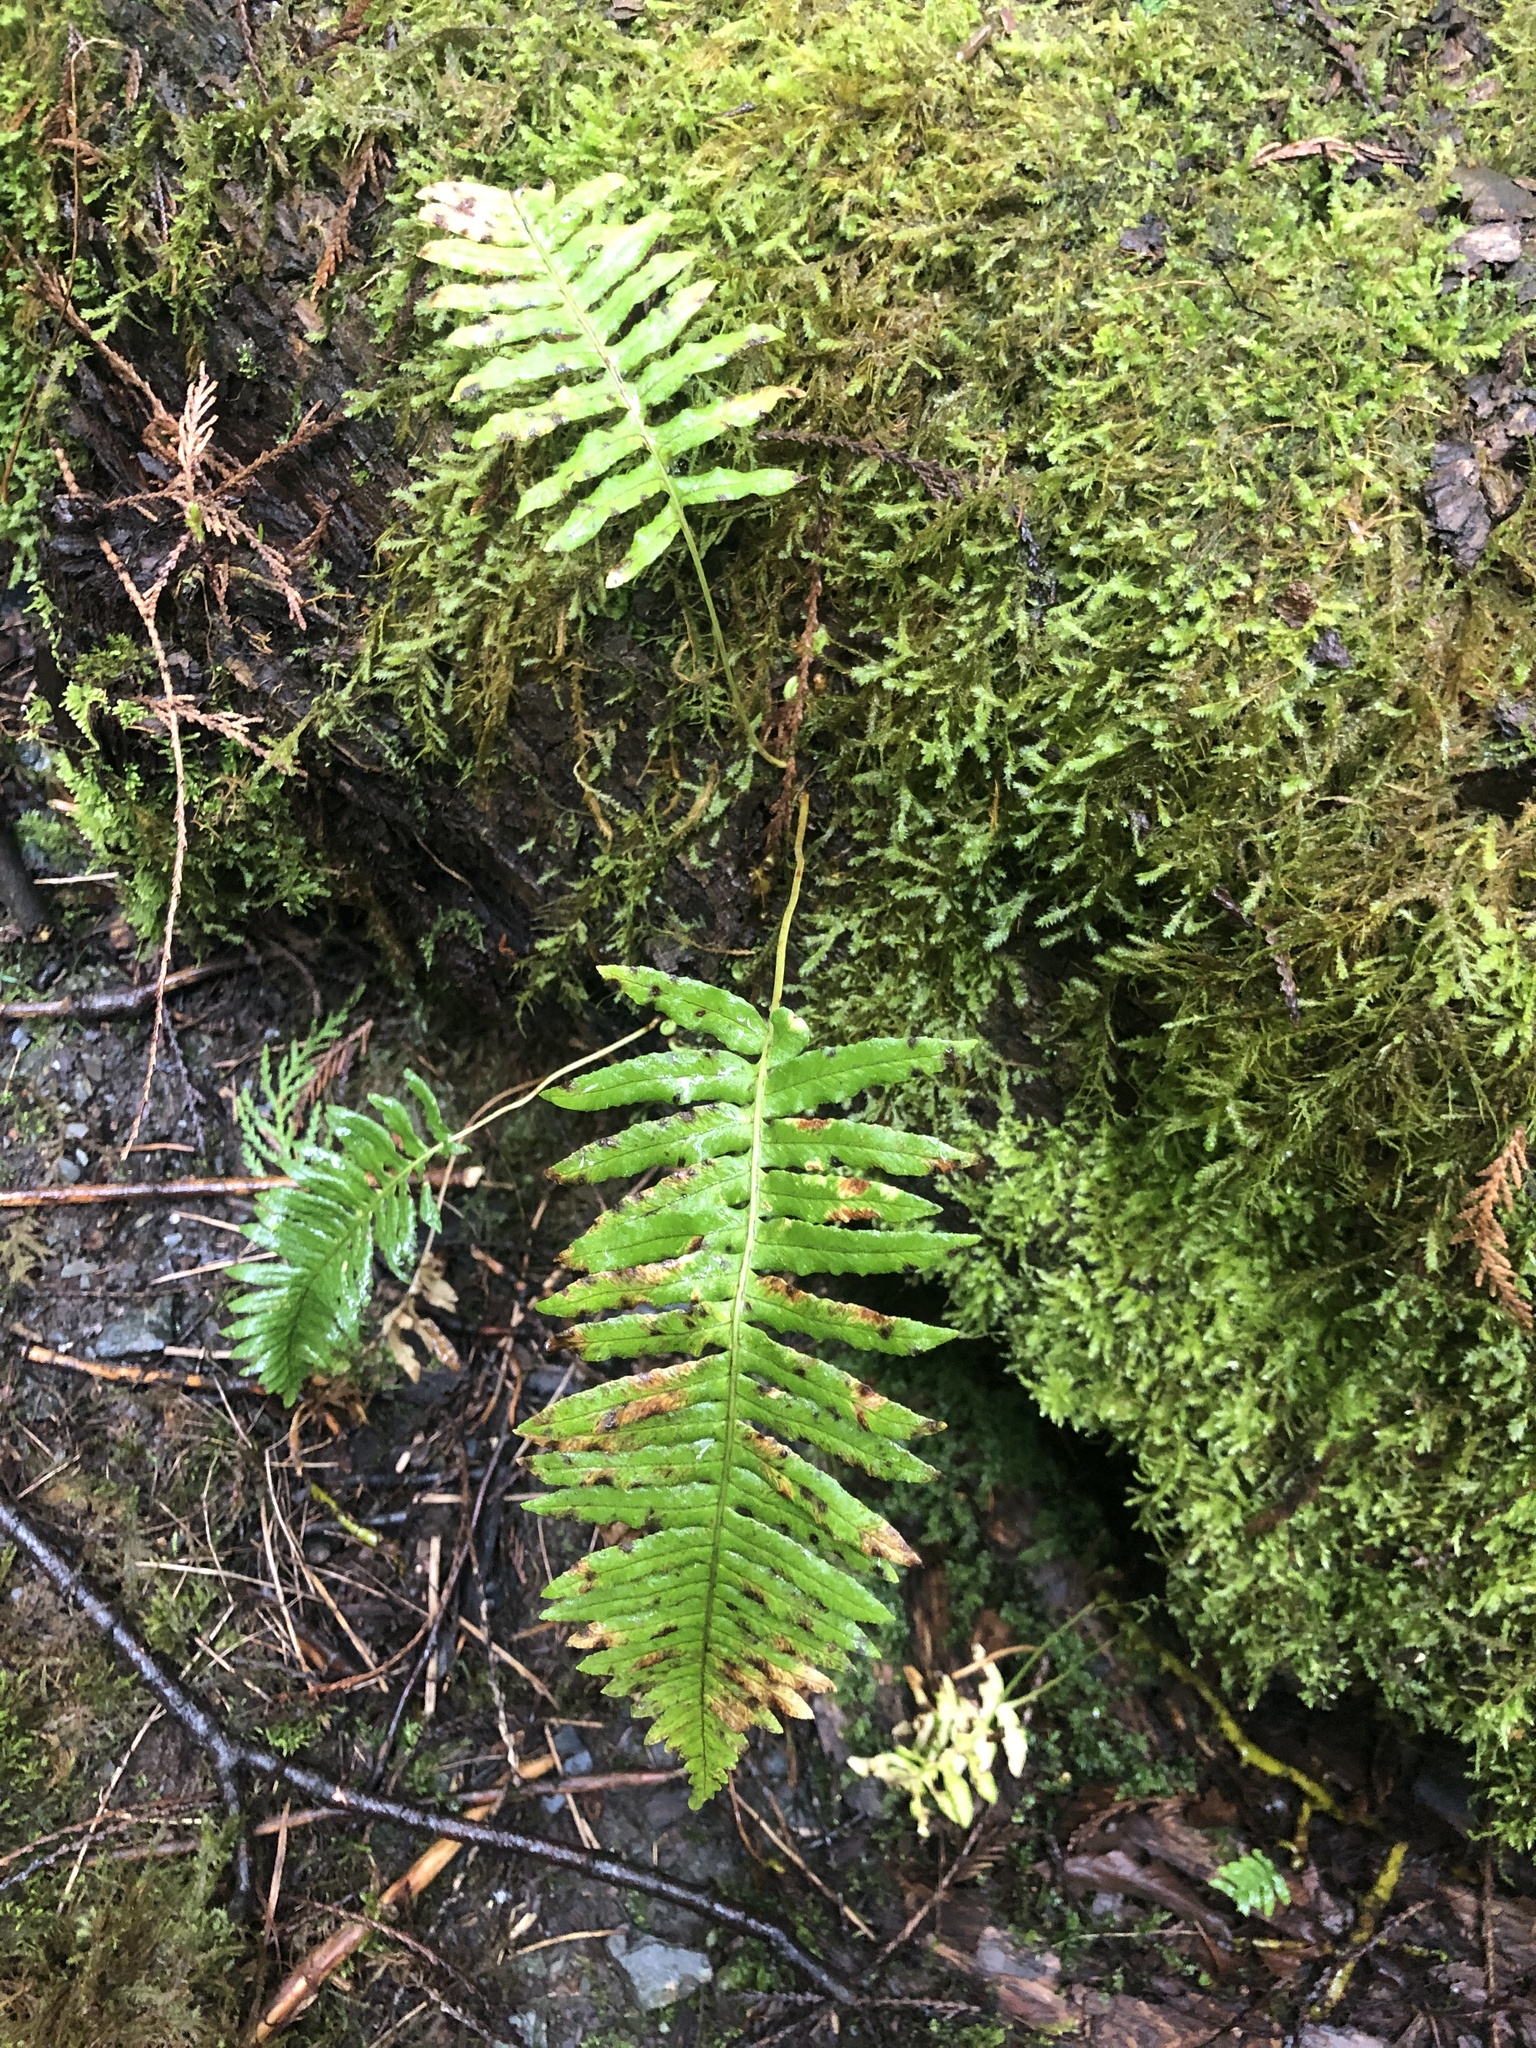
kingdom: Plantae
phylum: Tracheophyta
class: Polypodiopsida
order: Polypodiales
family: Polypodiaceae
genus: Polypodium
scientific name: Polypodium glycyrrhiza
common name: Licorice fern
